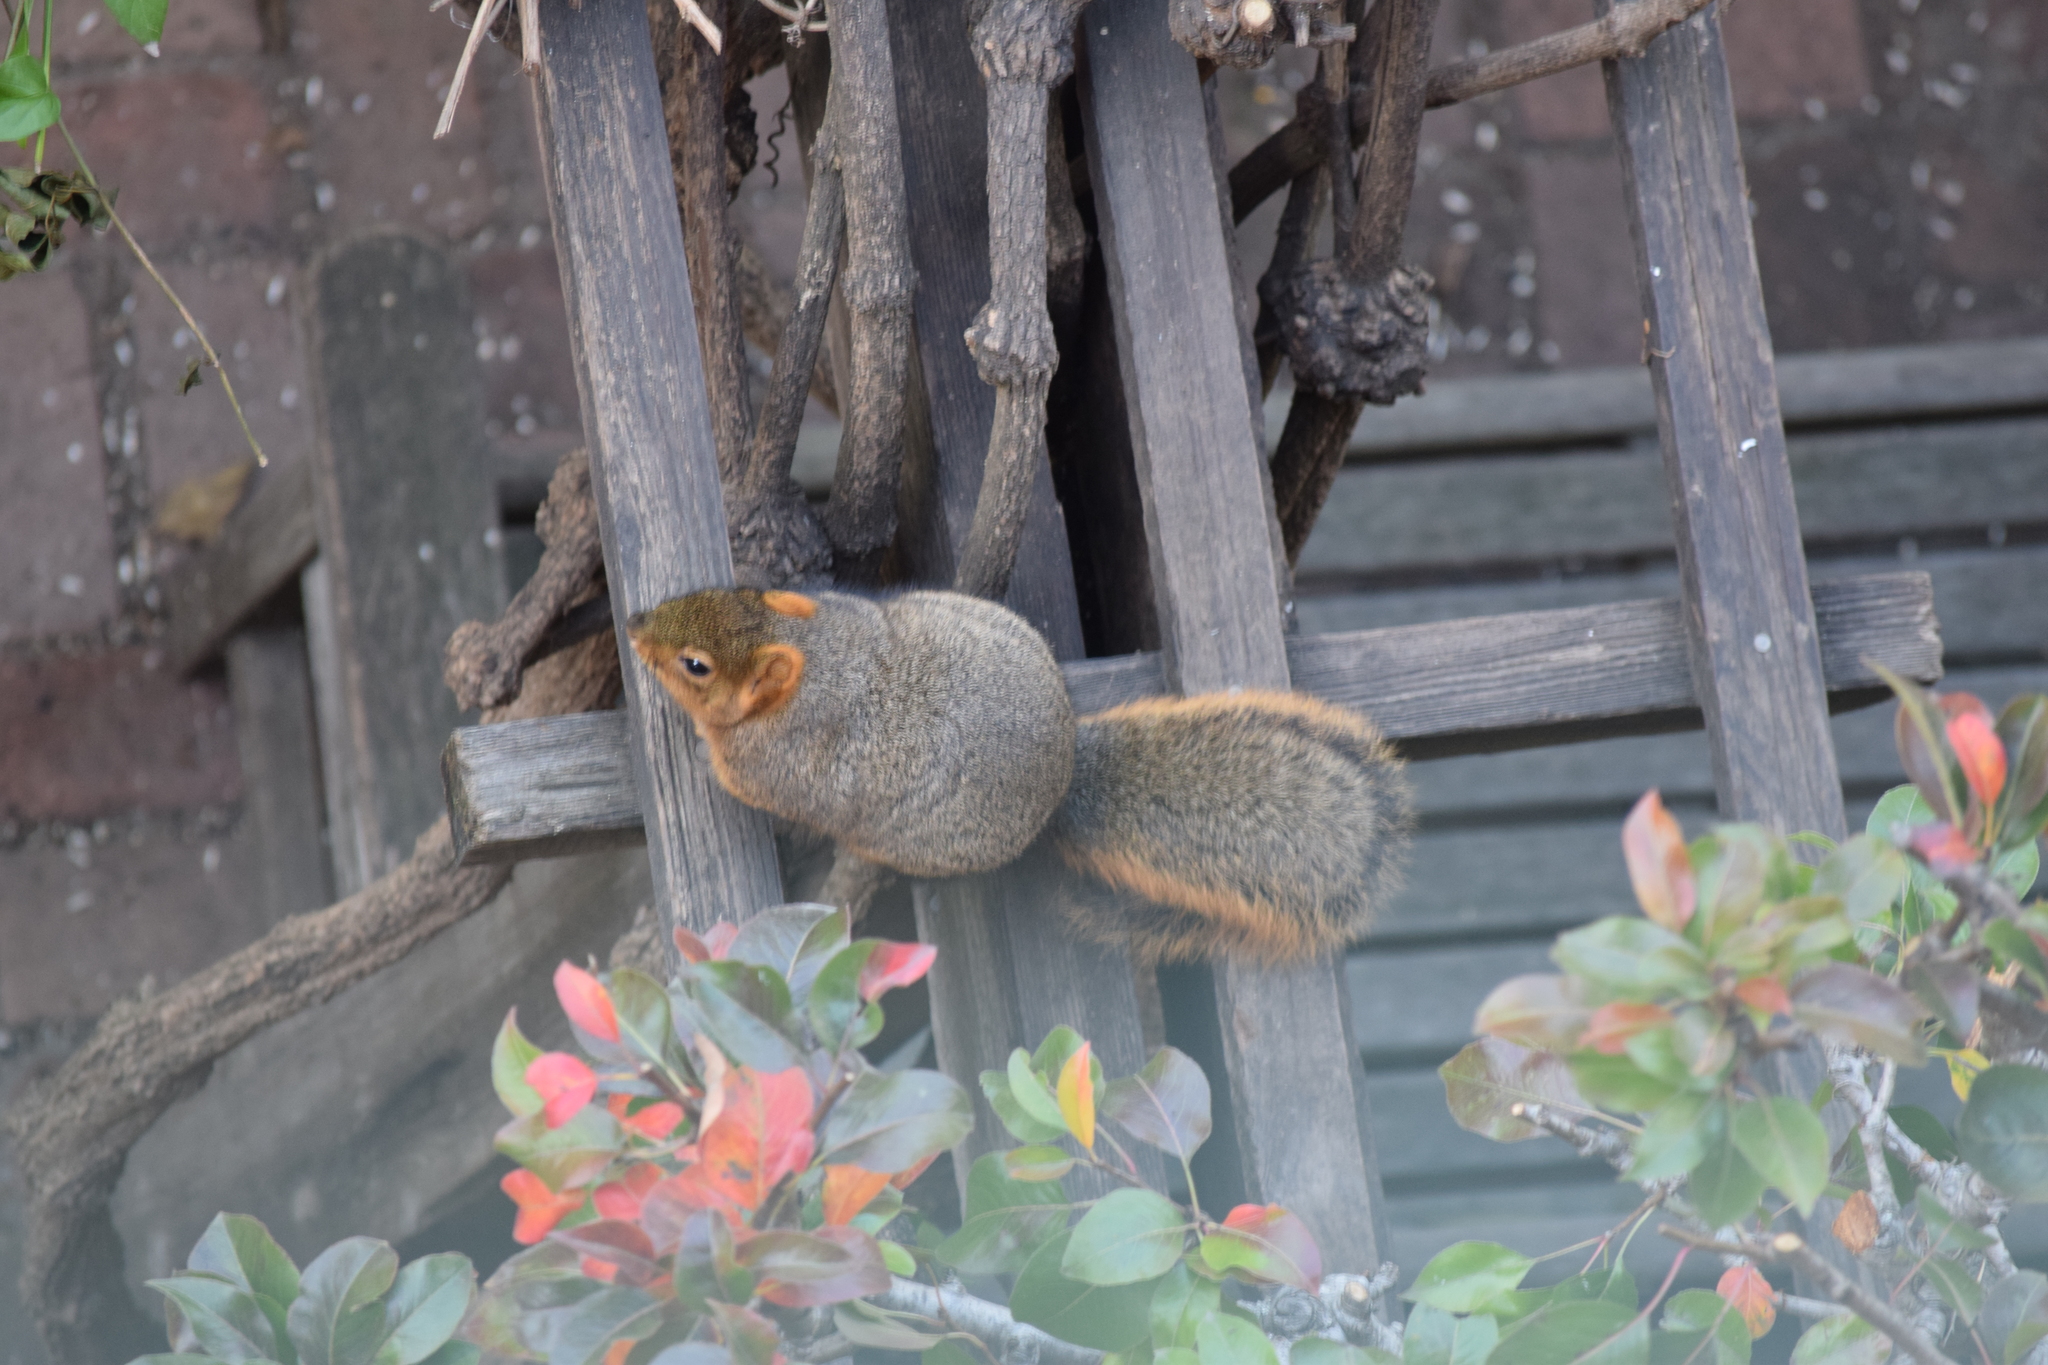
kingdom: Animalia
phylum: Chordata
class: Mammalia
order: Rodentia
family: Sciuridae
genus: Sciurus
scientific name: Sciurus niger
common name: Fox squirrel
